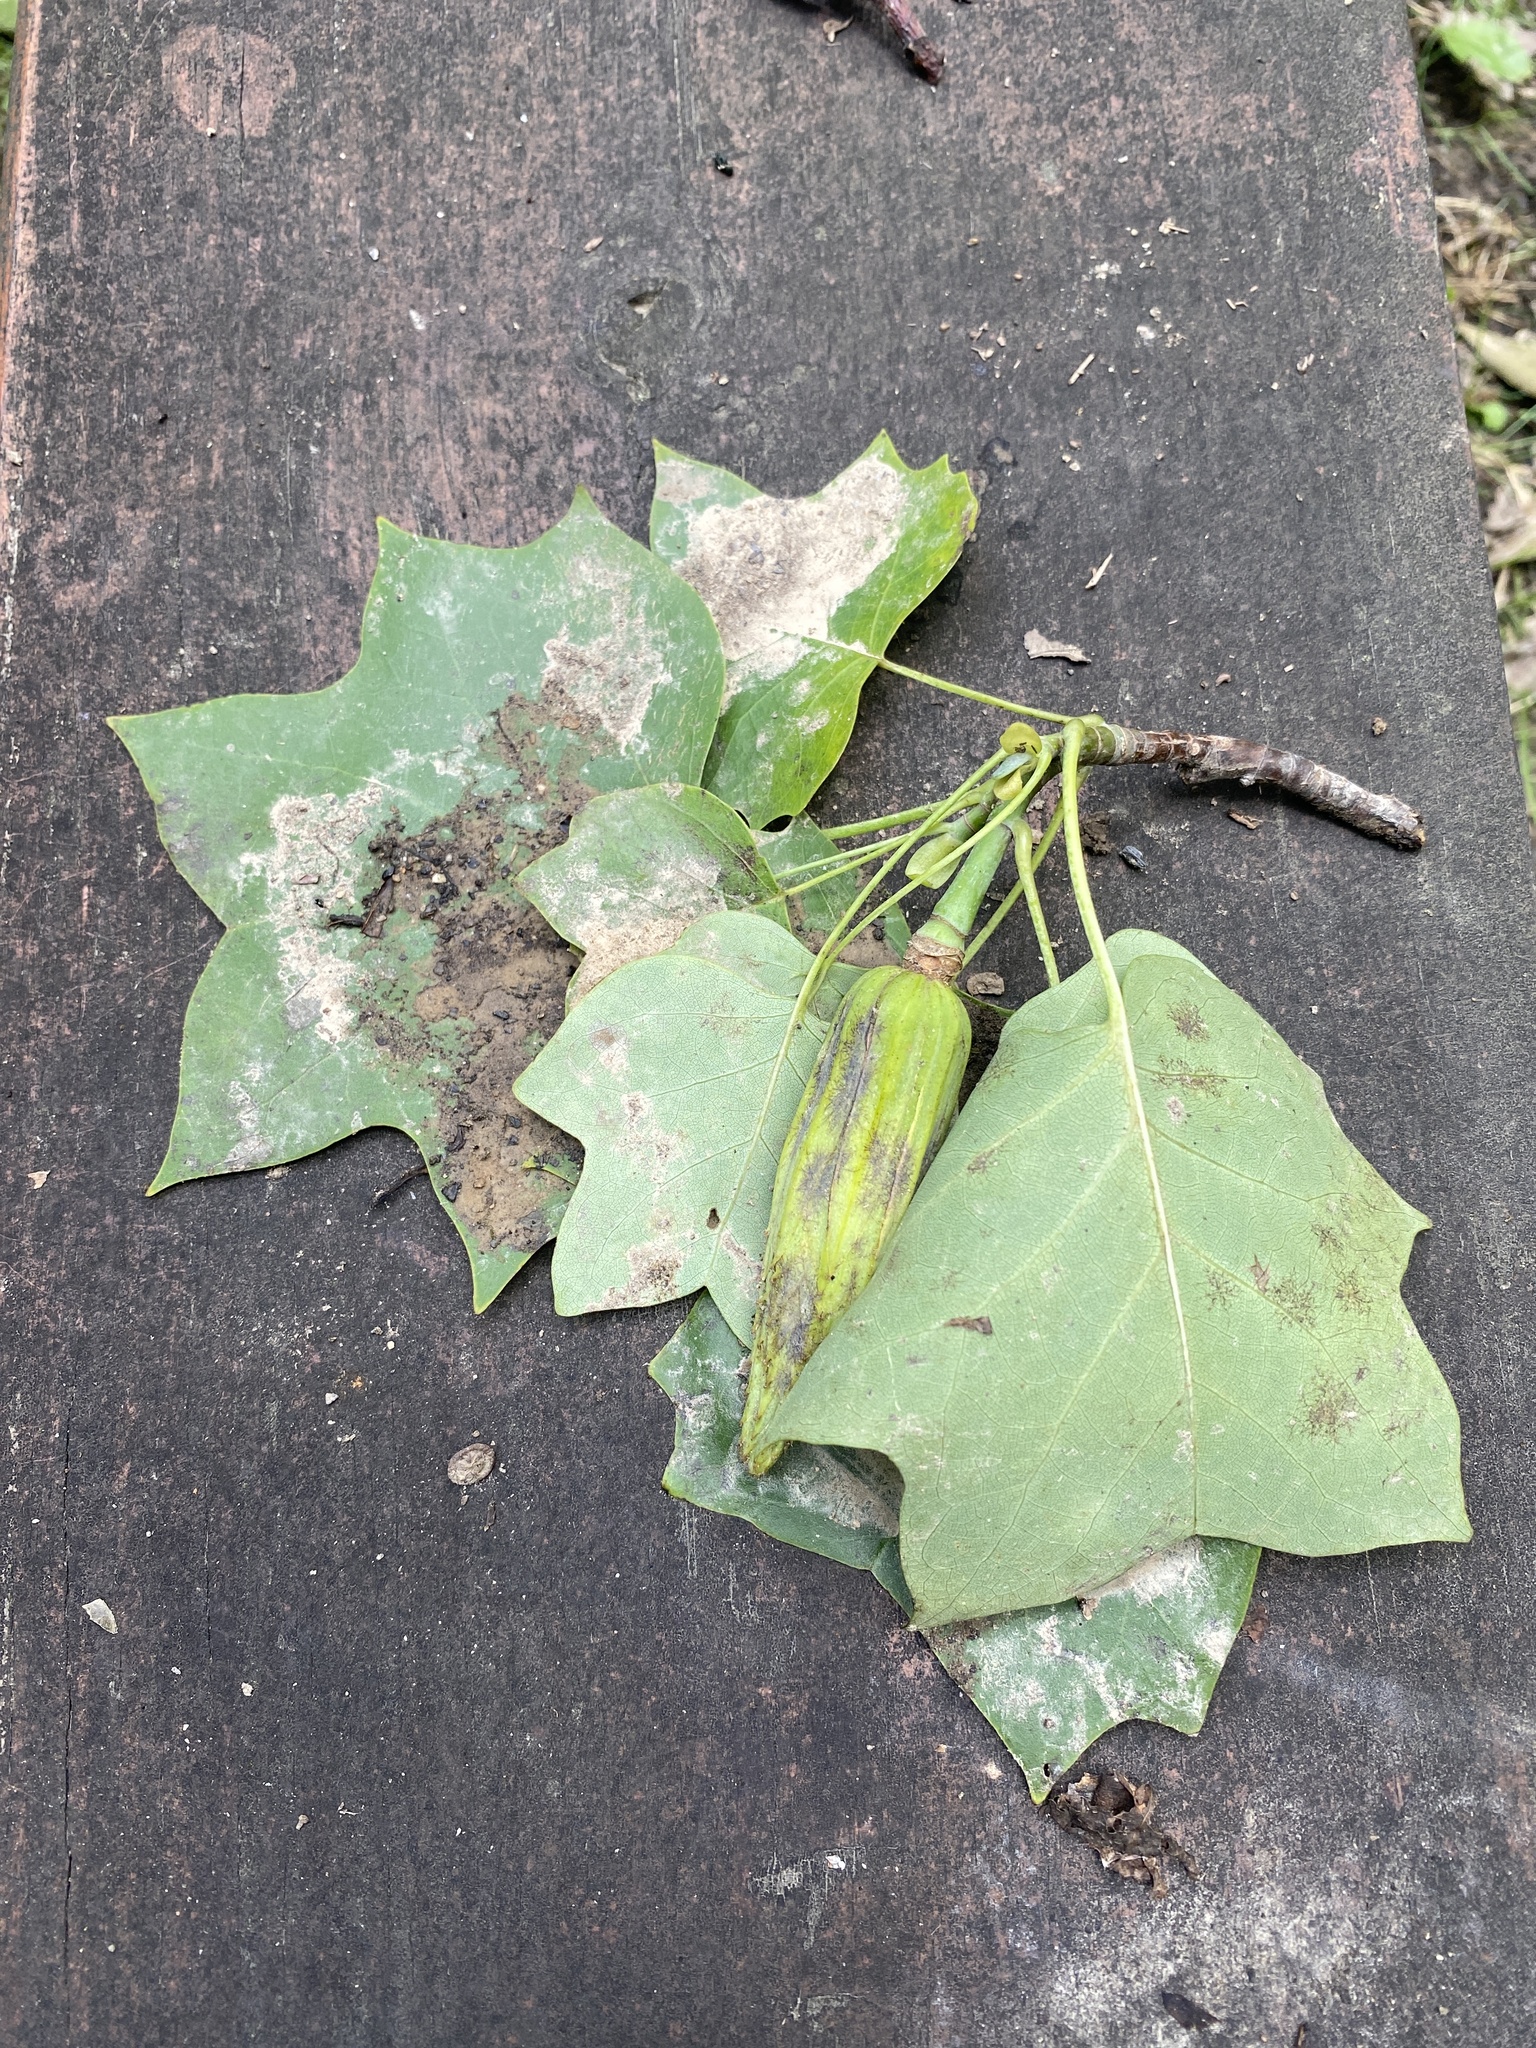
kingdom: Plantae
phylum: Tracheophyta
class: Magnoliopsida
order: Magnoliales
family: Magnoliaceae
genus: Liriodendron
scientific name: Liriodendron tulipifera
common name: Tulip tree
